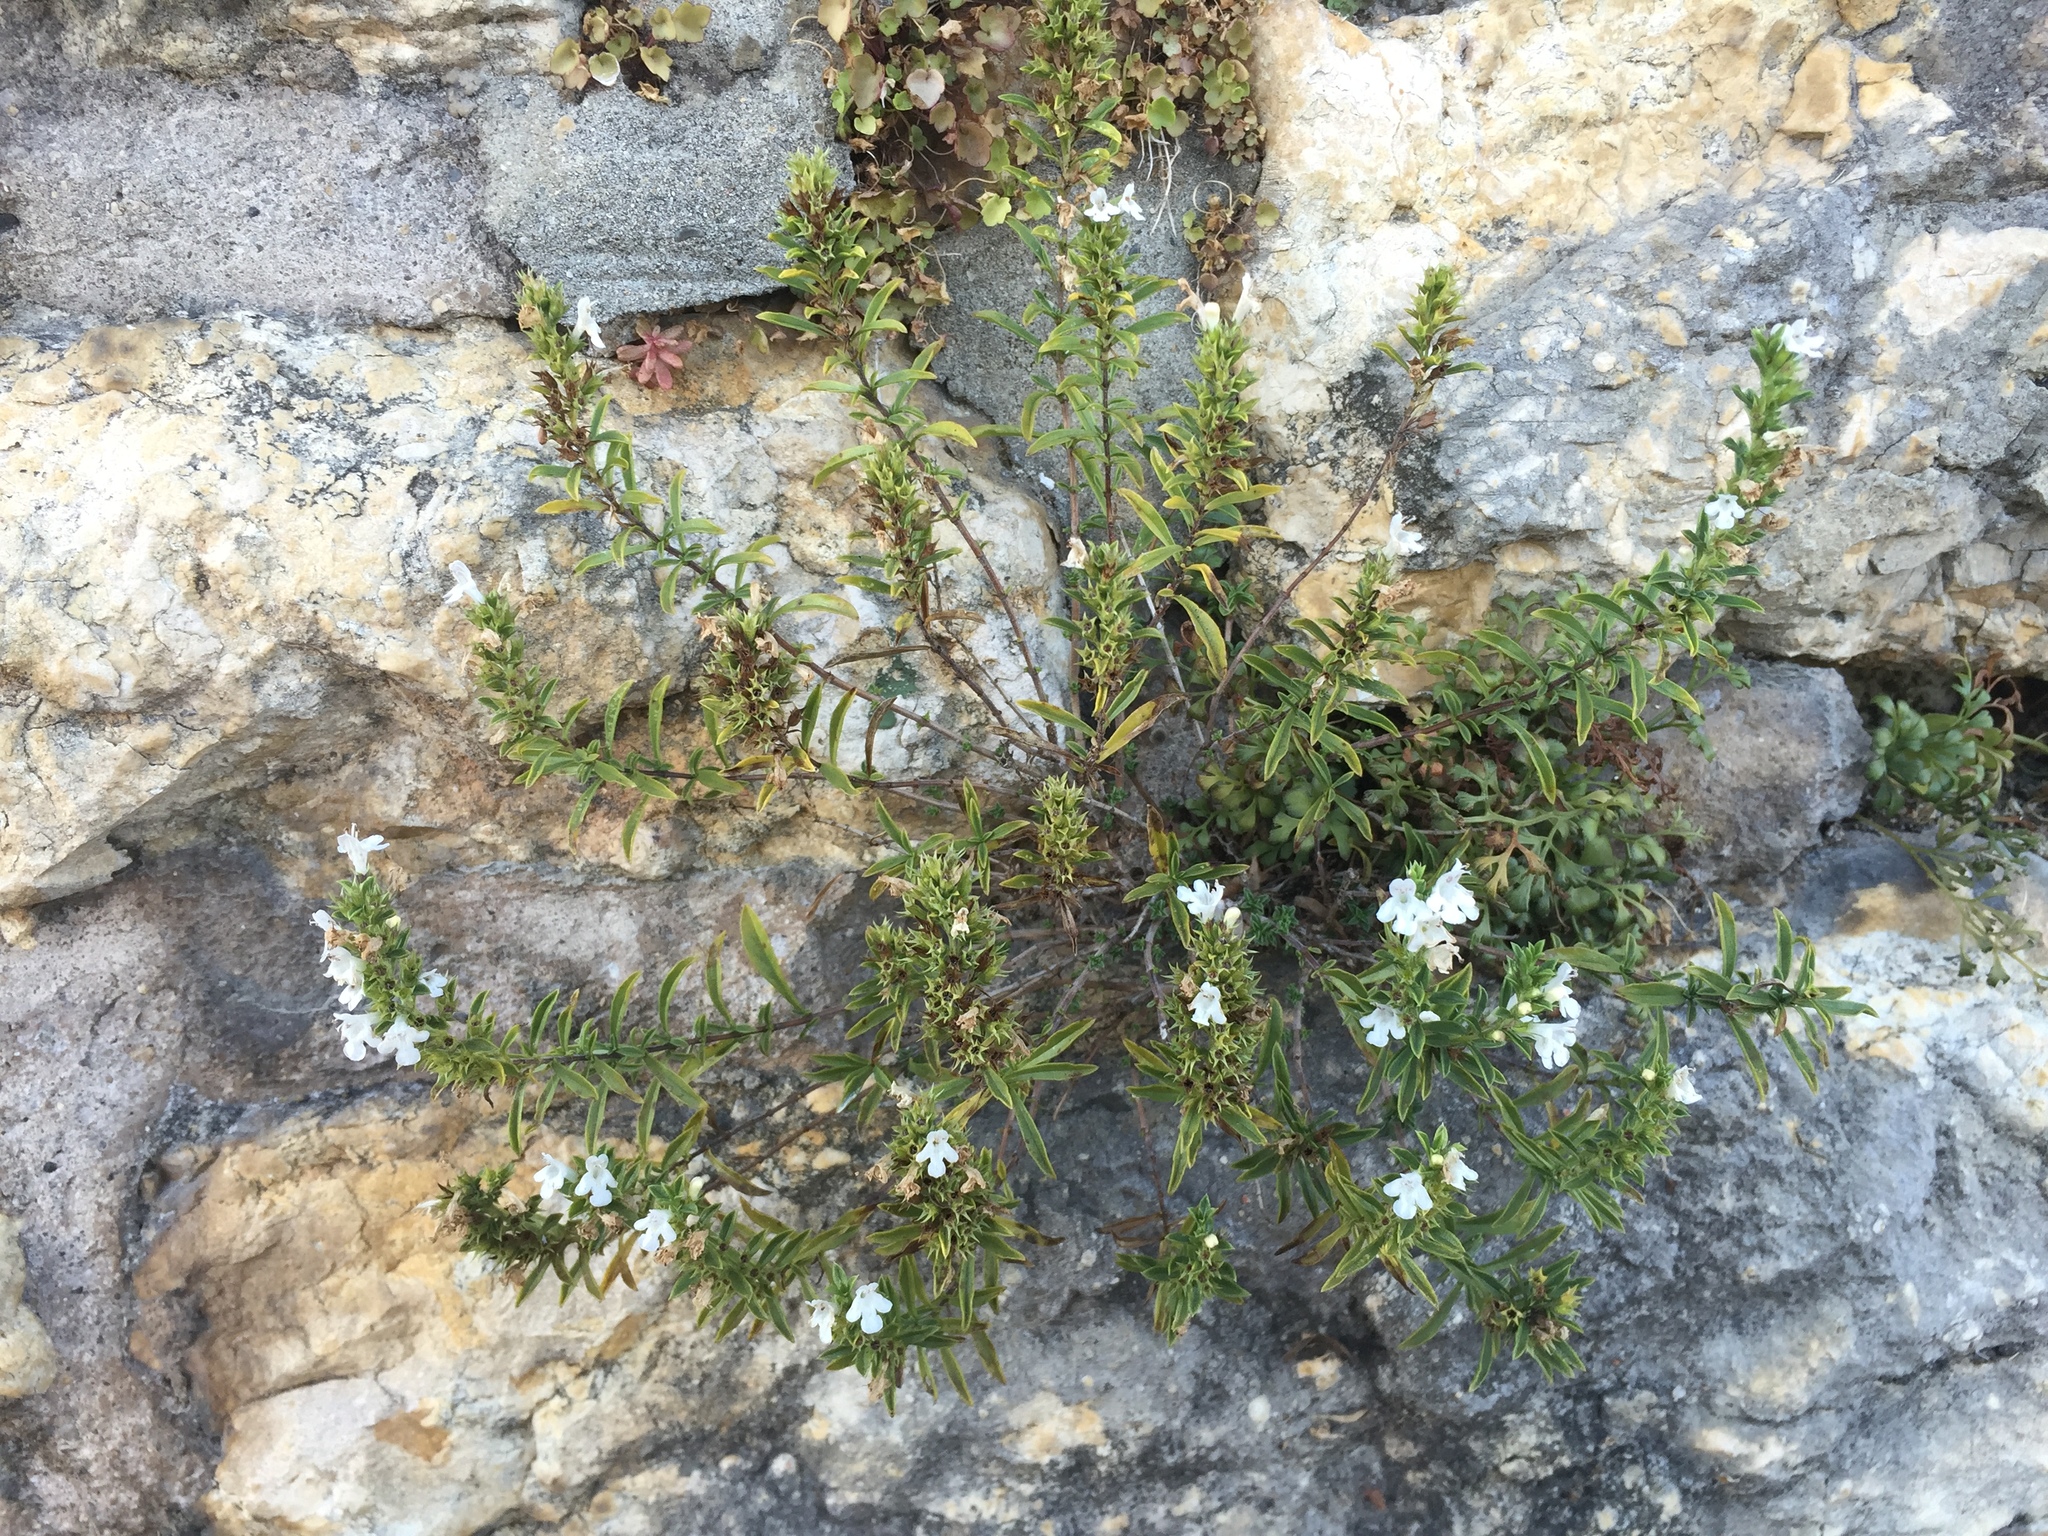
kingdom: Plantae
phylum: Tracheophyta
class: Magnoliopsida
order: Lamiales
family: Lamiaceae
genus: Satureja
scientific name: Satureja montana
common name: Winter savory
